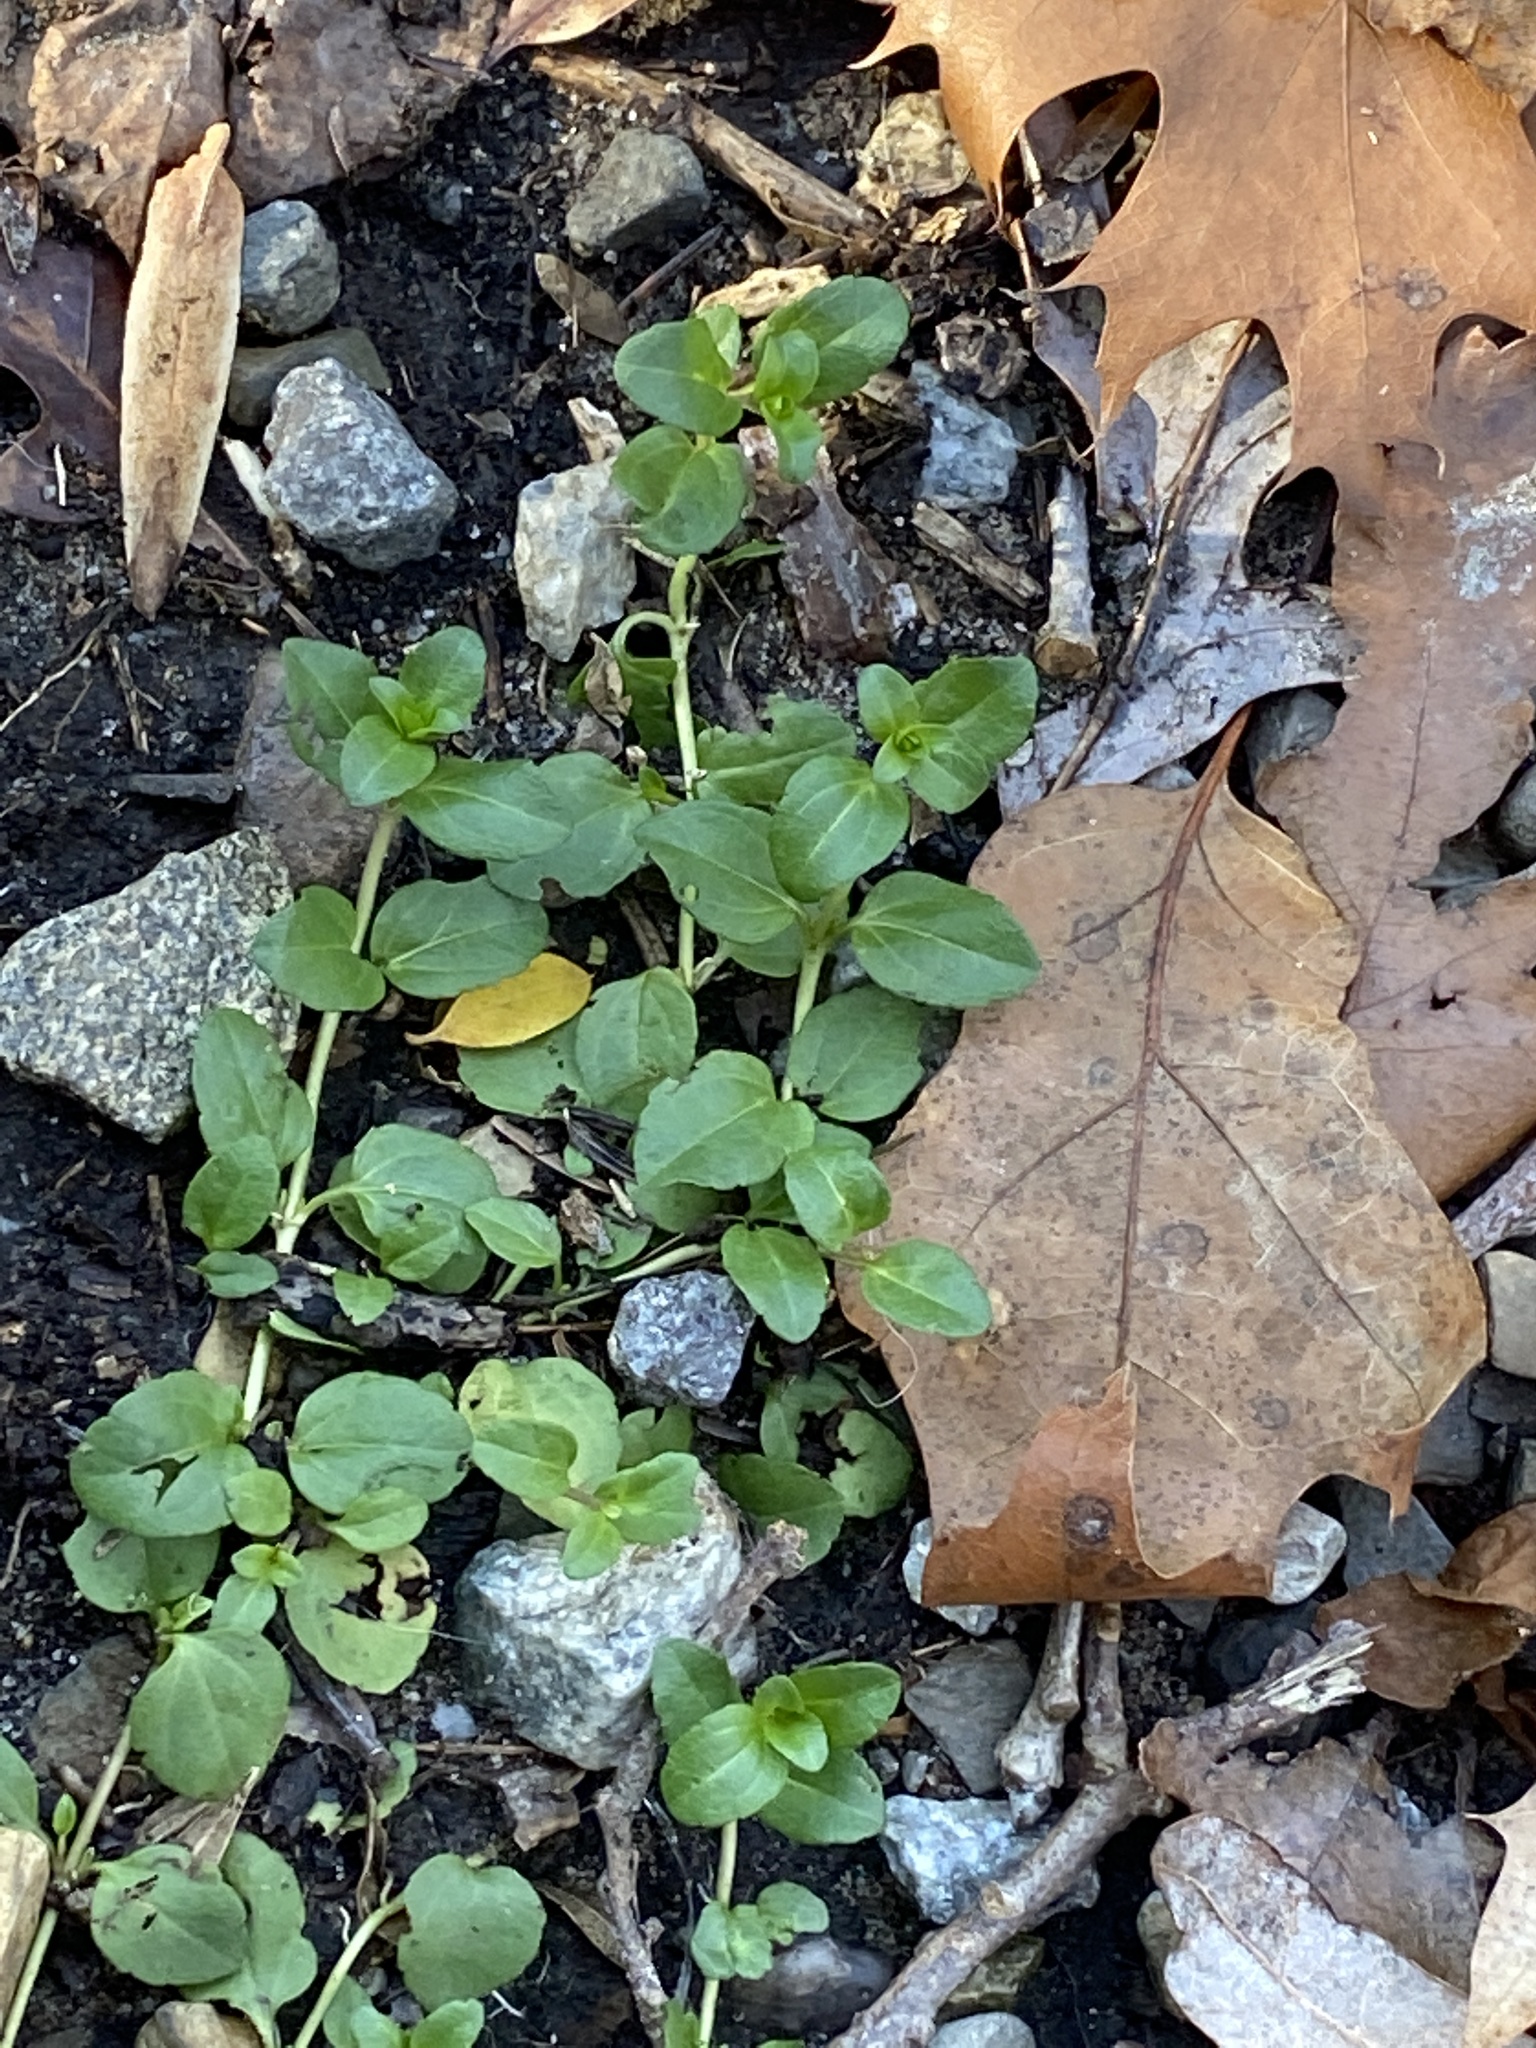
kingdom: Plantae
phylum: Tracheophyta
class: Magnoliopsida
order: Lamiales
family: Plantaginaceae
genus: Veronica
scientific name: Veronica serpyllifolia
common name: Thyme-leaved speedwell
